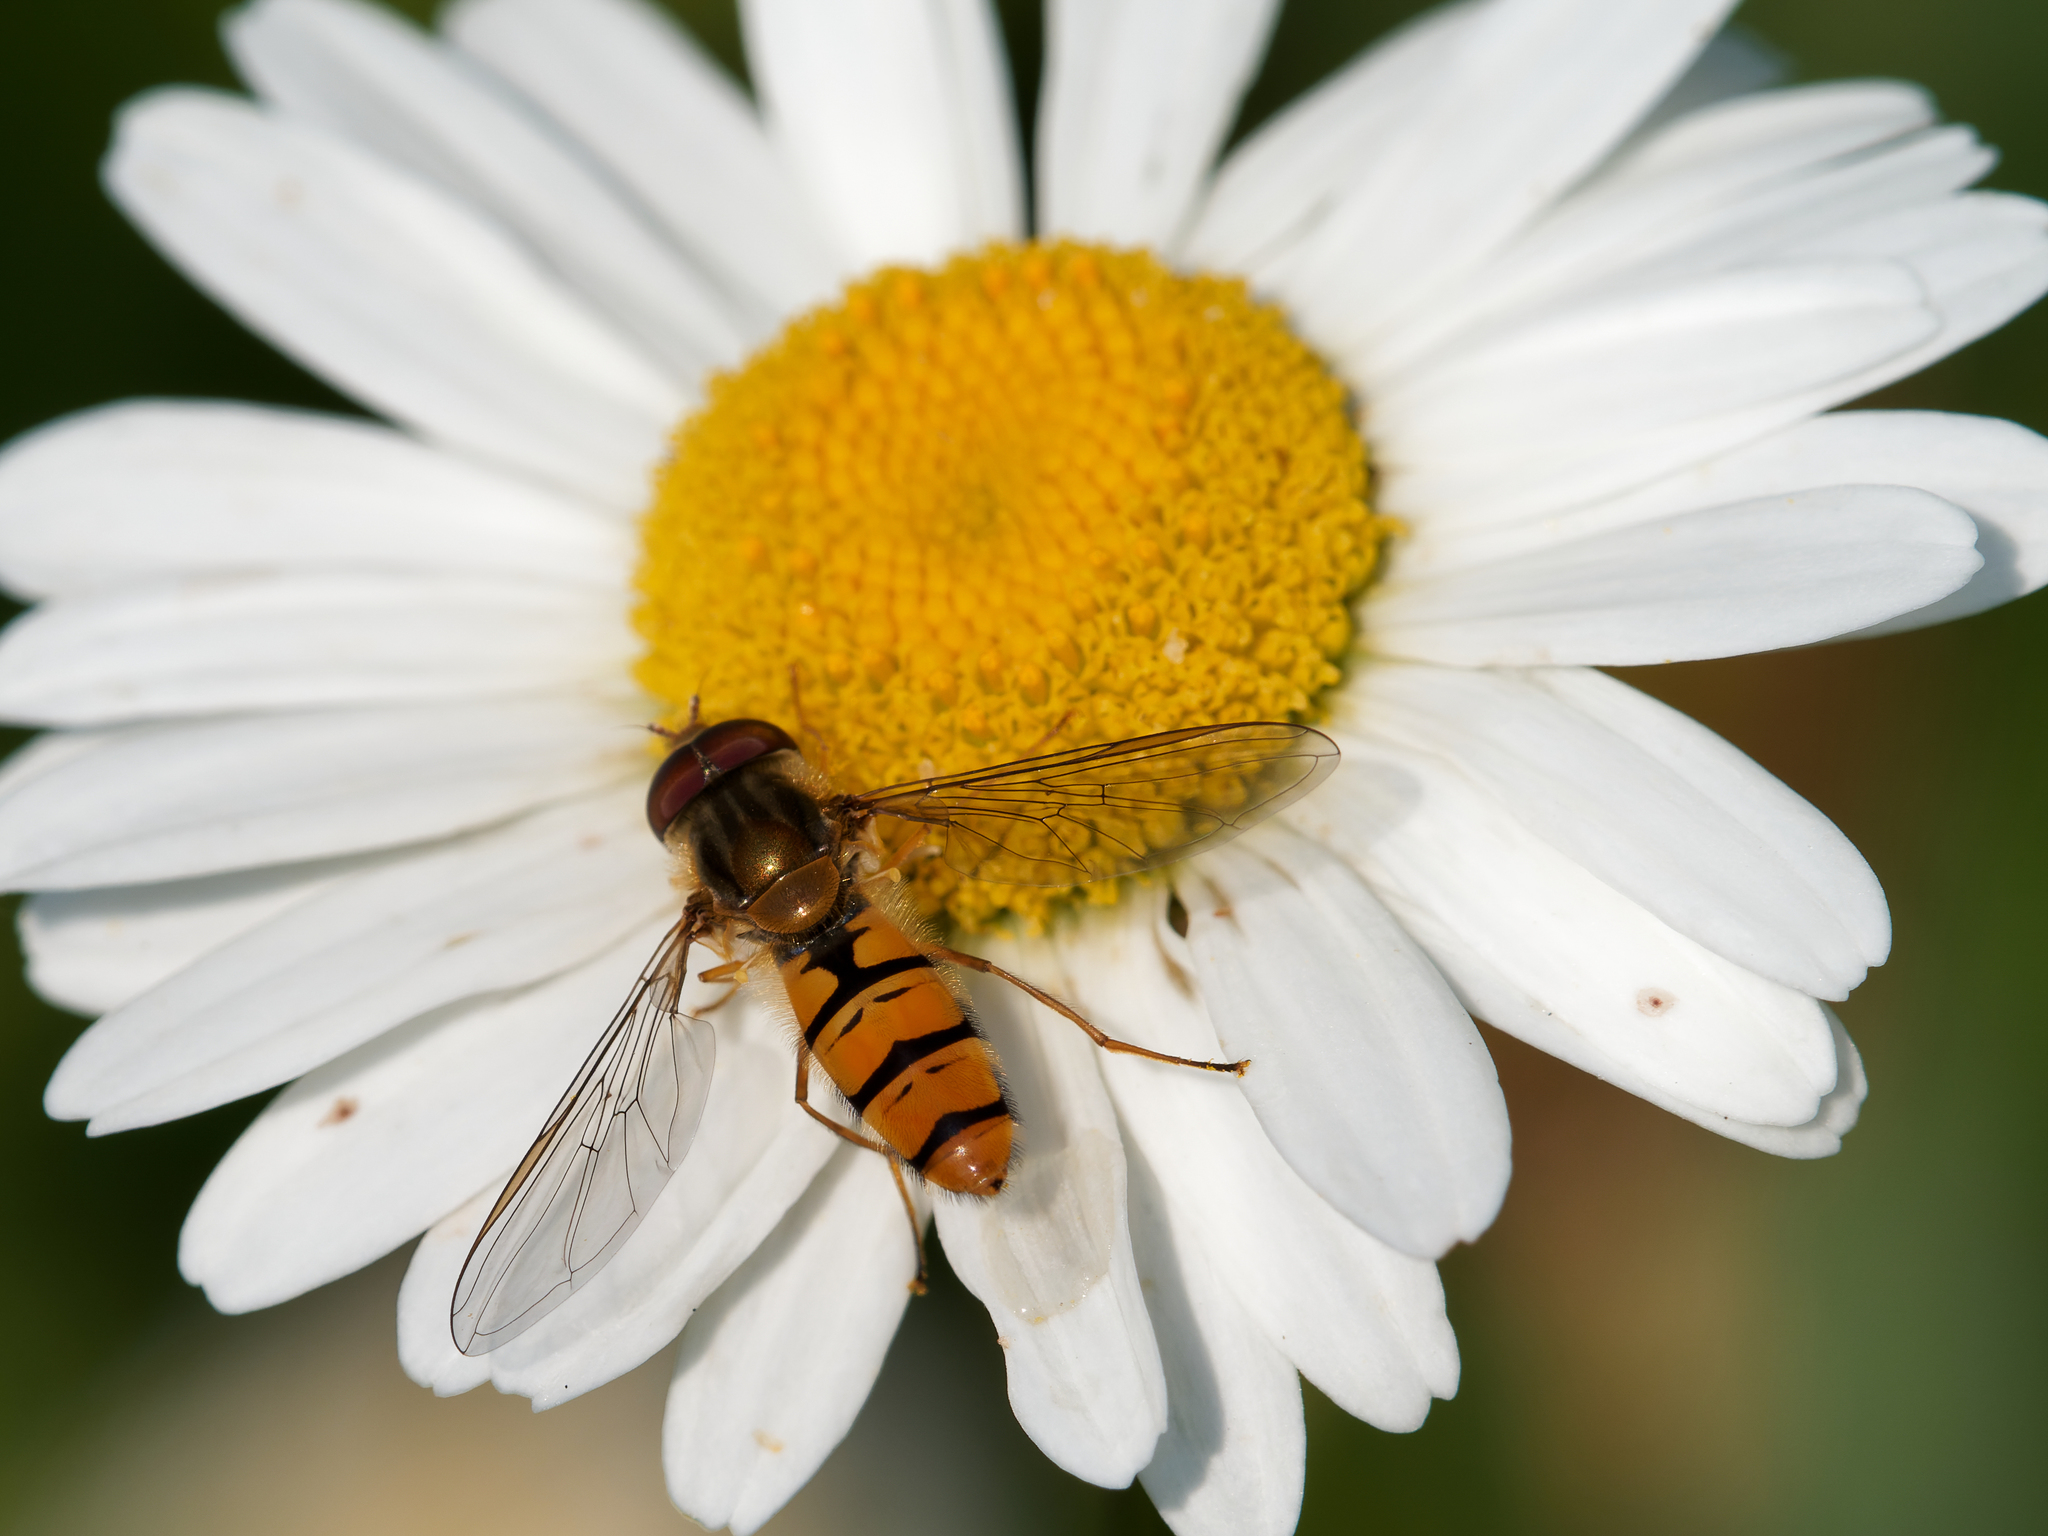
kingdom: Animalia
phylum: Arthropoda
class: Insecta
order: Diptera
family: Syrphidae
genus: Episyrphus
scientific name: Episyrphus balteatus
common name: Marmalade hoverfly
